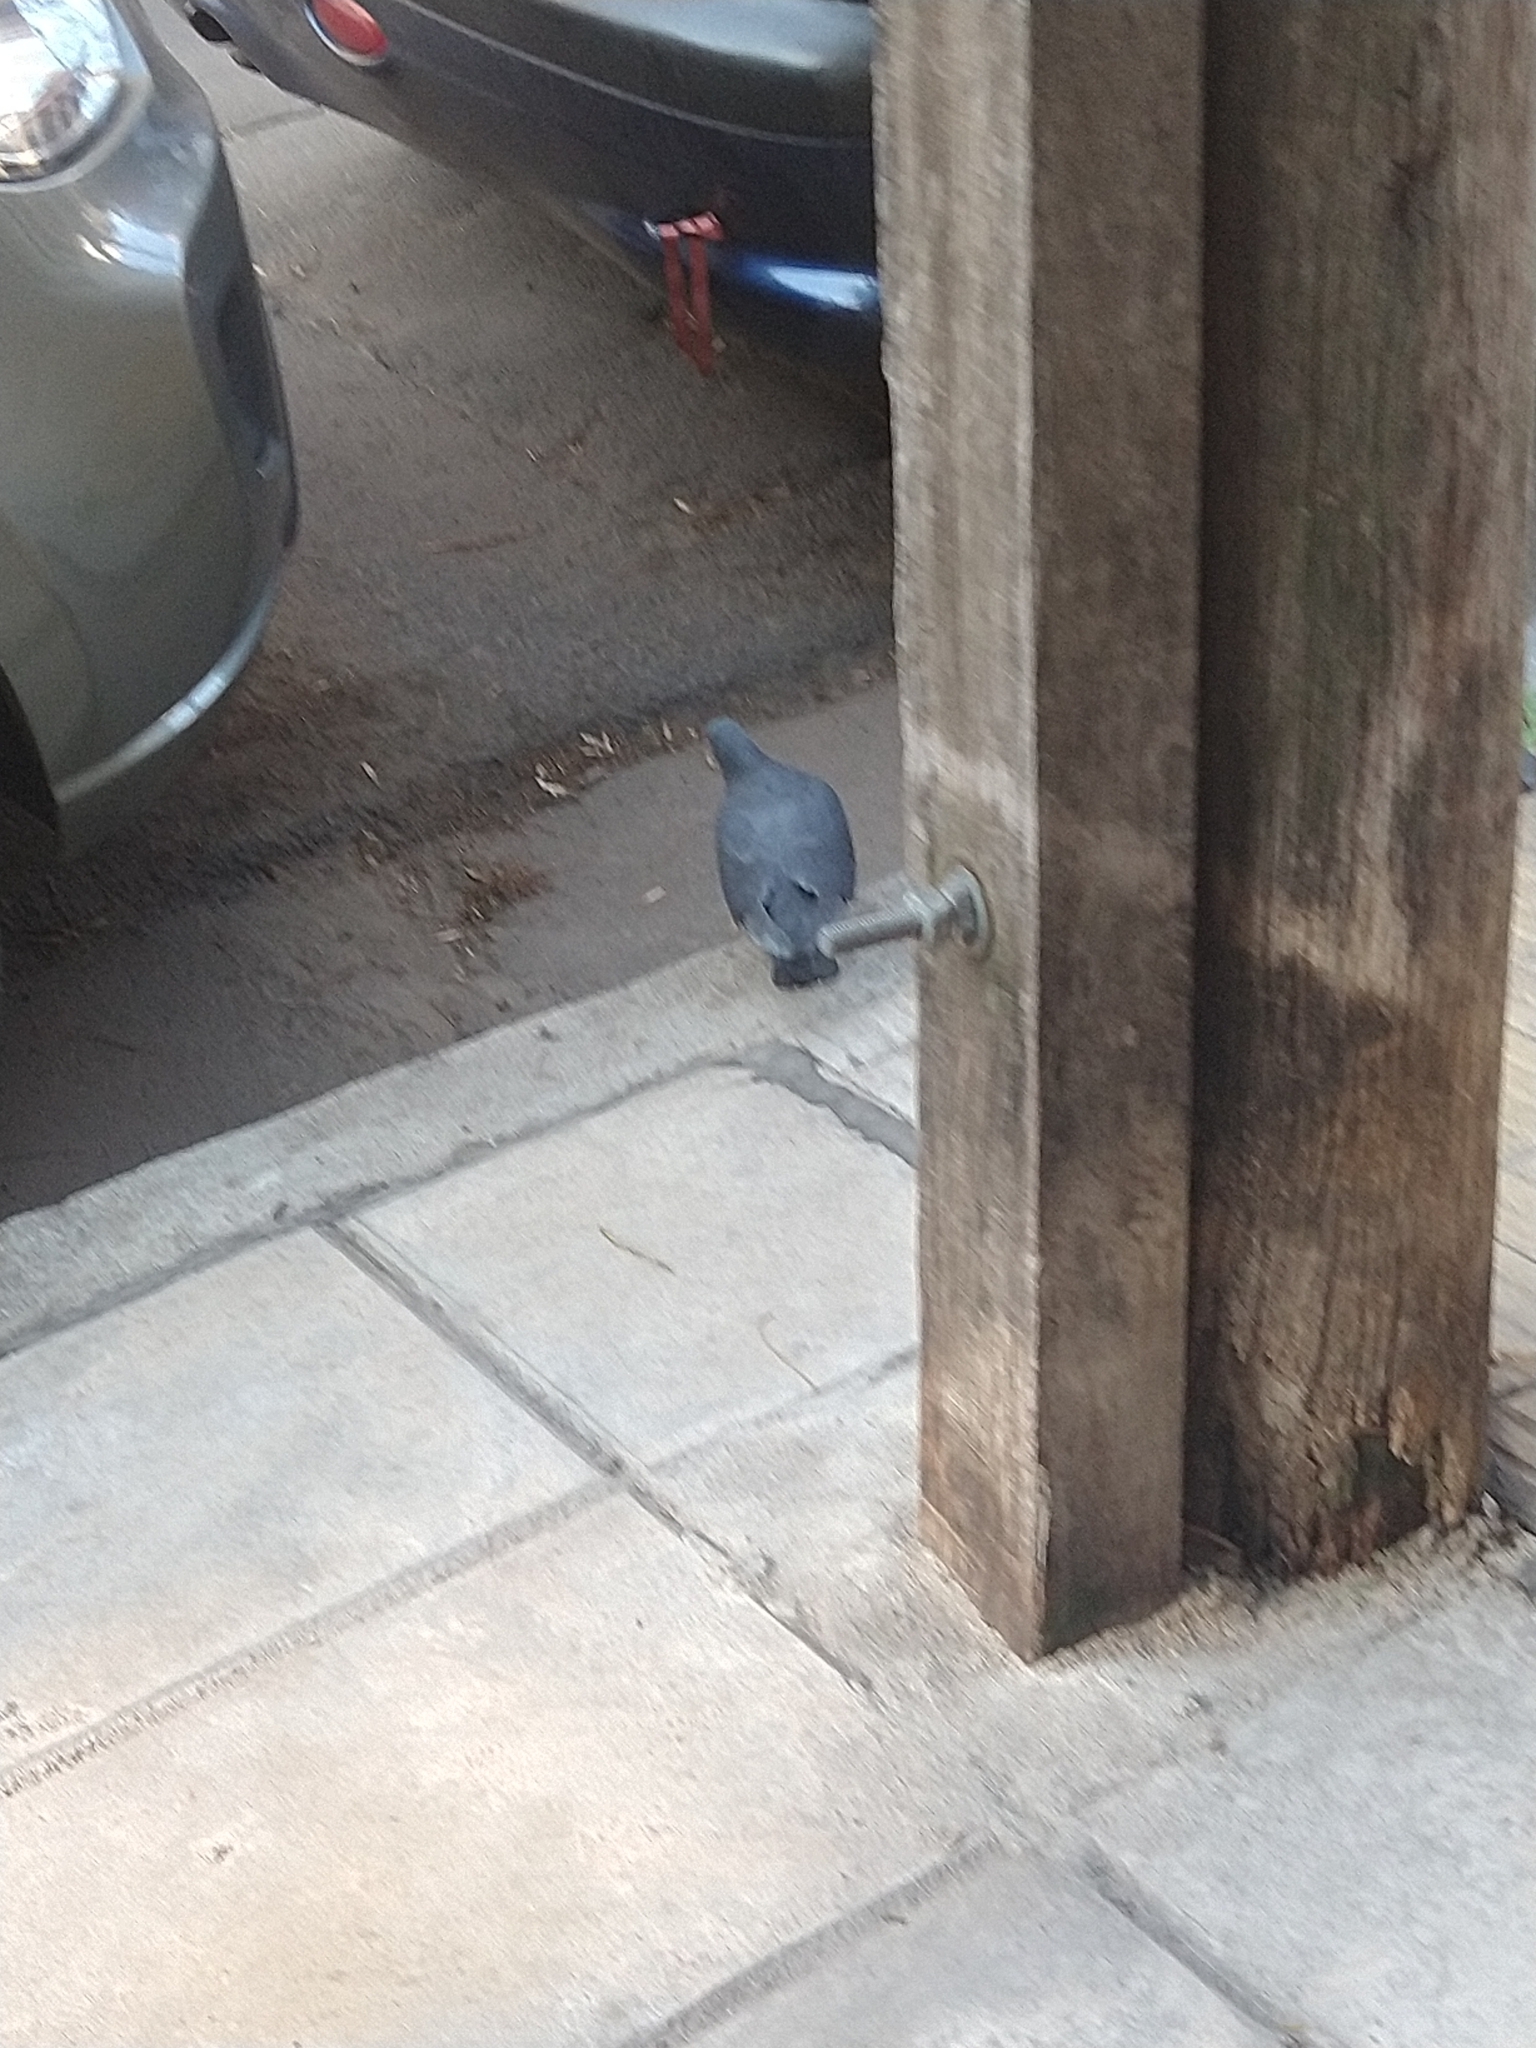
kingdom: Animalia
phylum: Chordata
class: Aves
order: Columbiformes
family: Columbidae
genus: Columba
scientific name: Columba livia
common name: Rock pigeon
